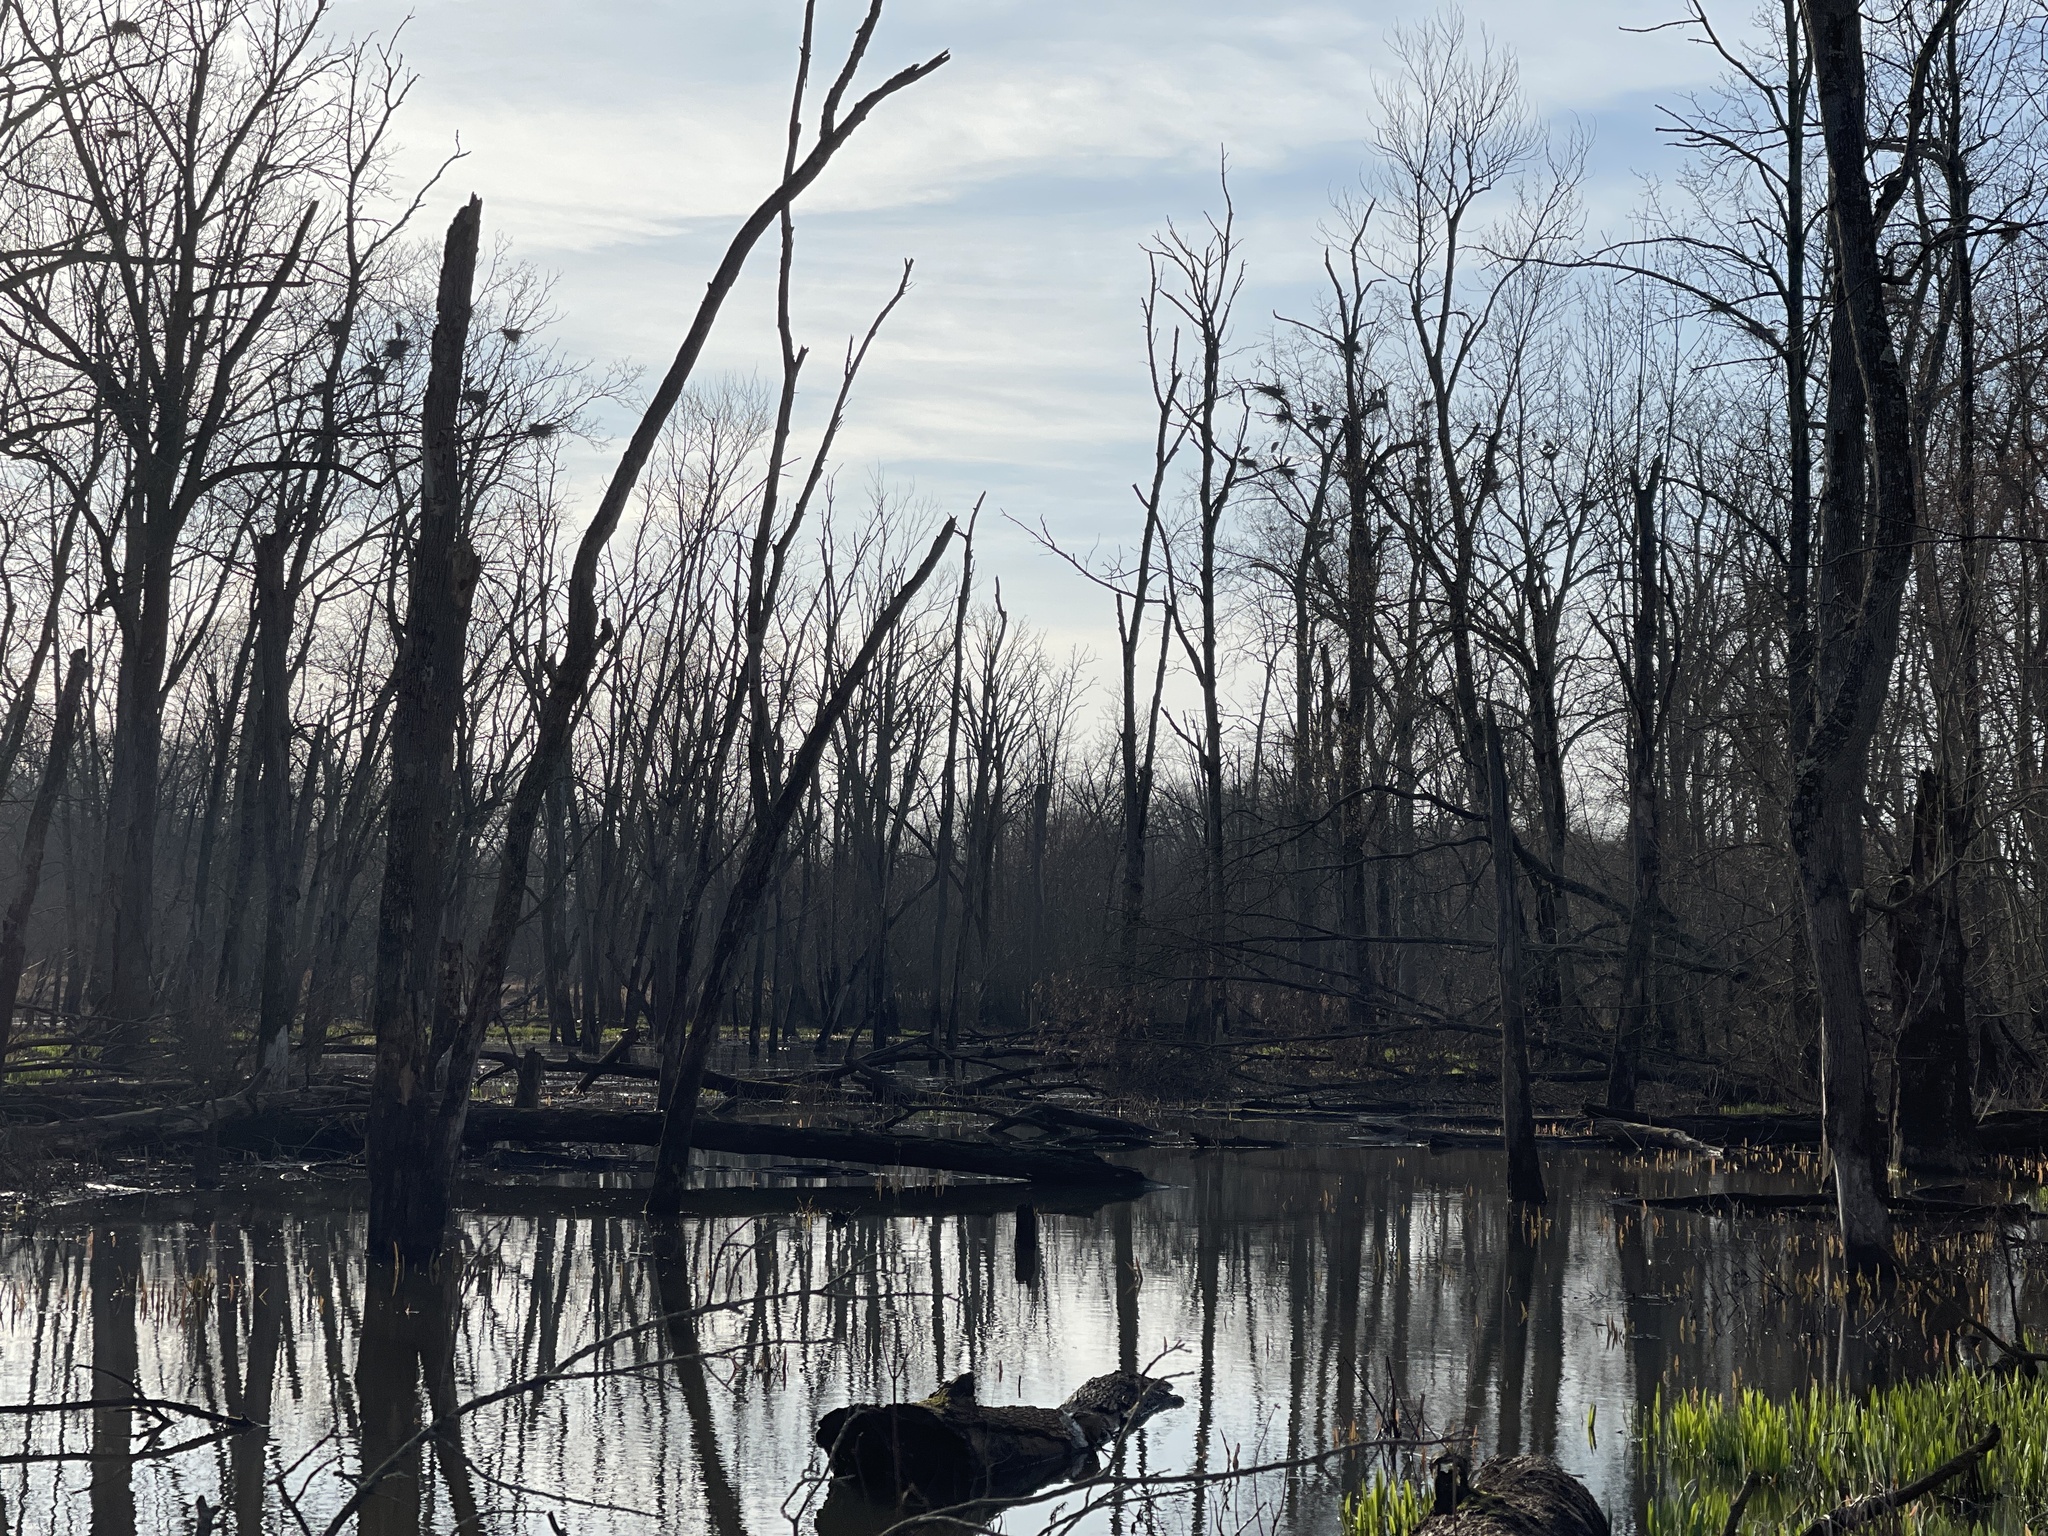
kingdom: Animalia
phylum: Chordata
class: Aves
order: Pelecaniformes
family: Ardeidae
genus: Ardea
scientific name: Ardea herodias
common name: Great blue heron
